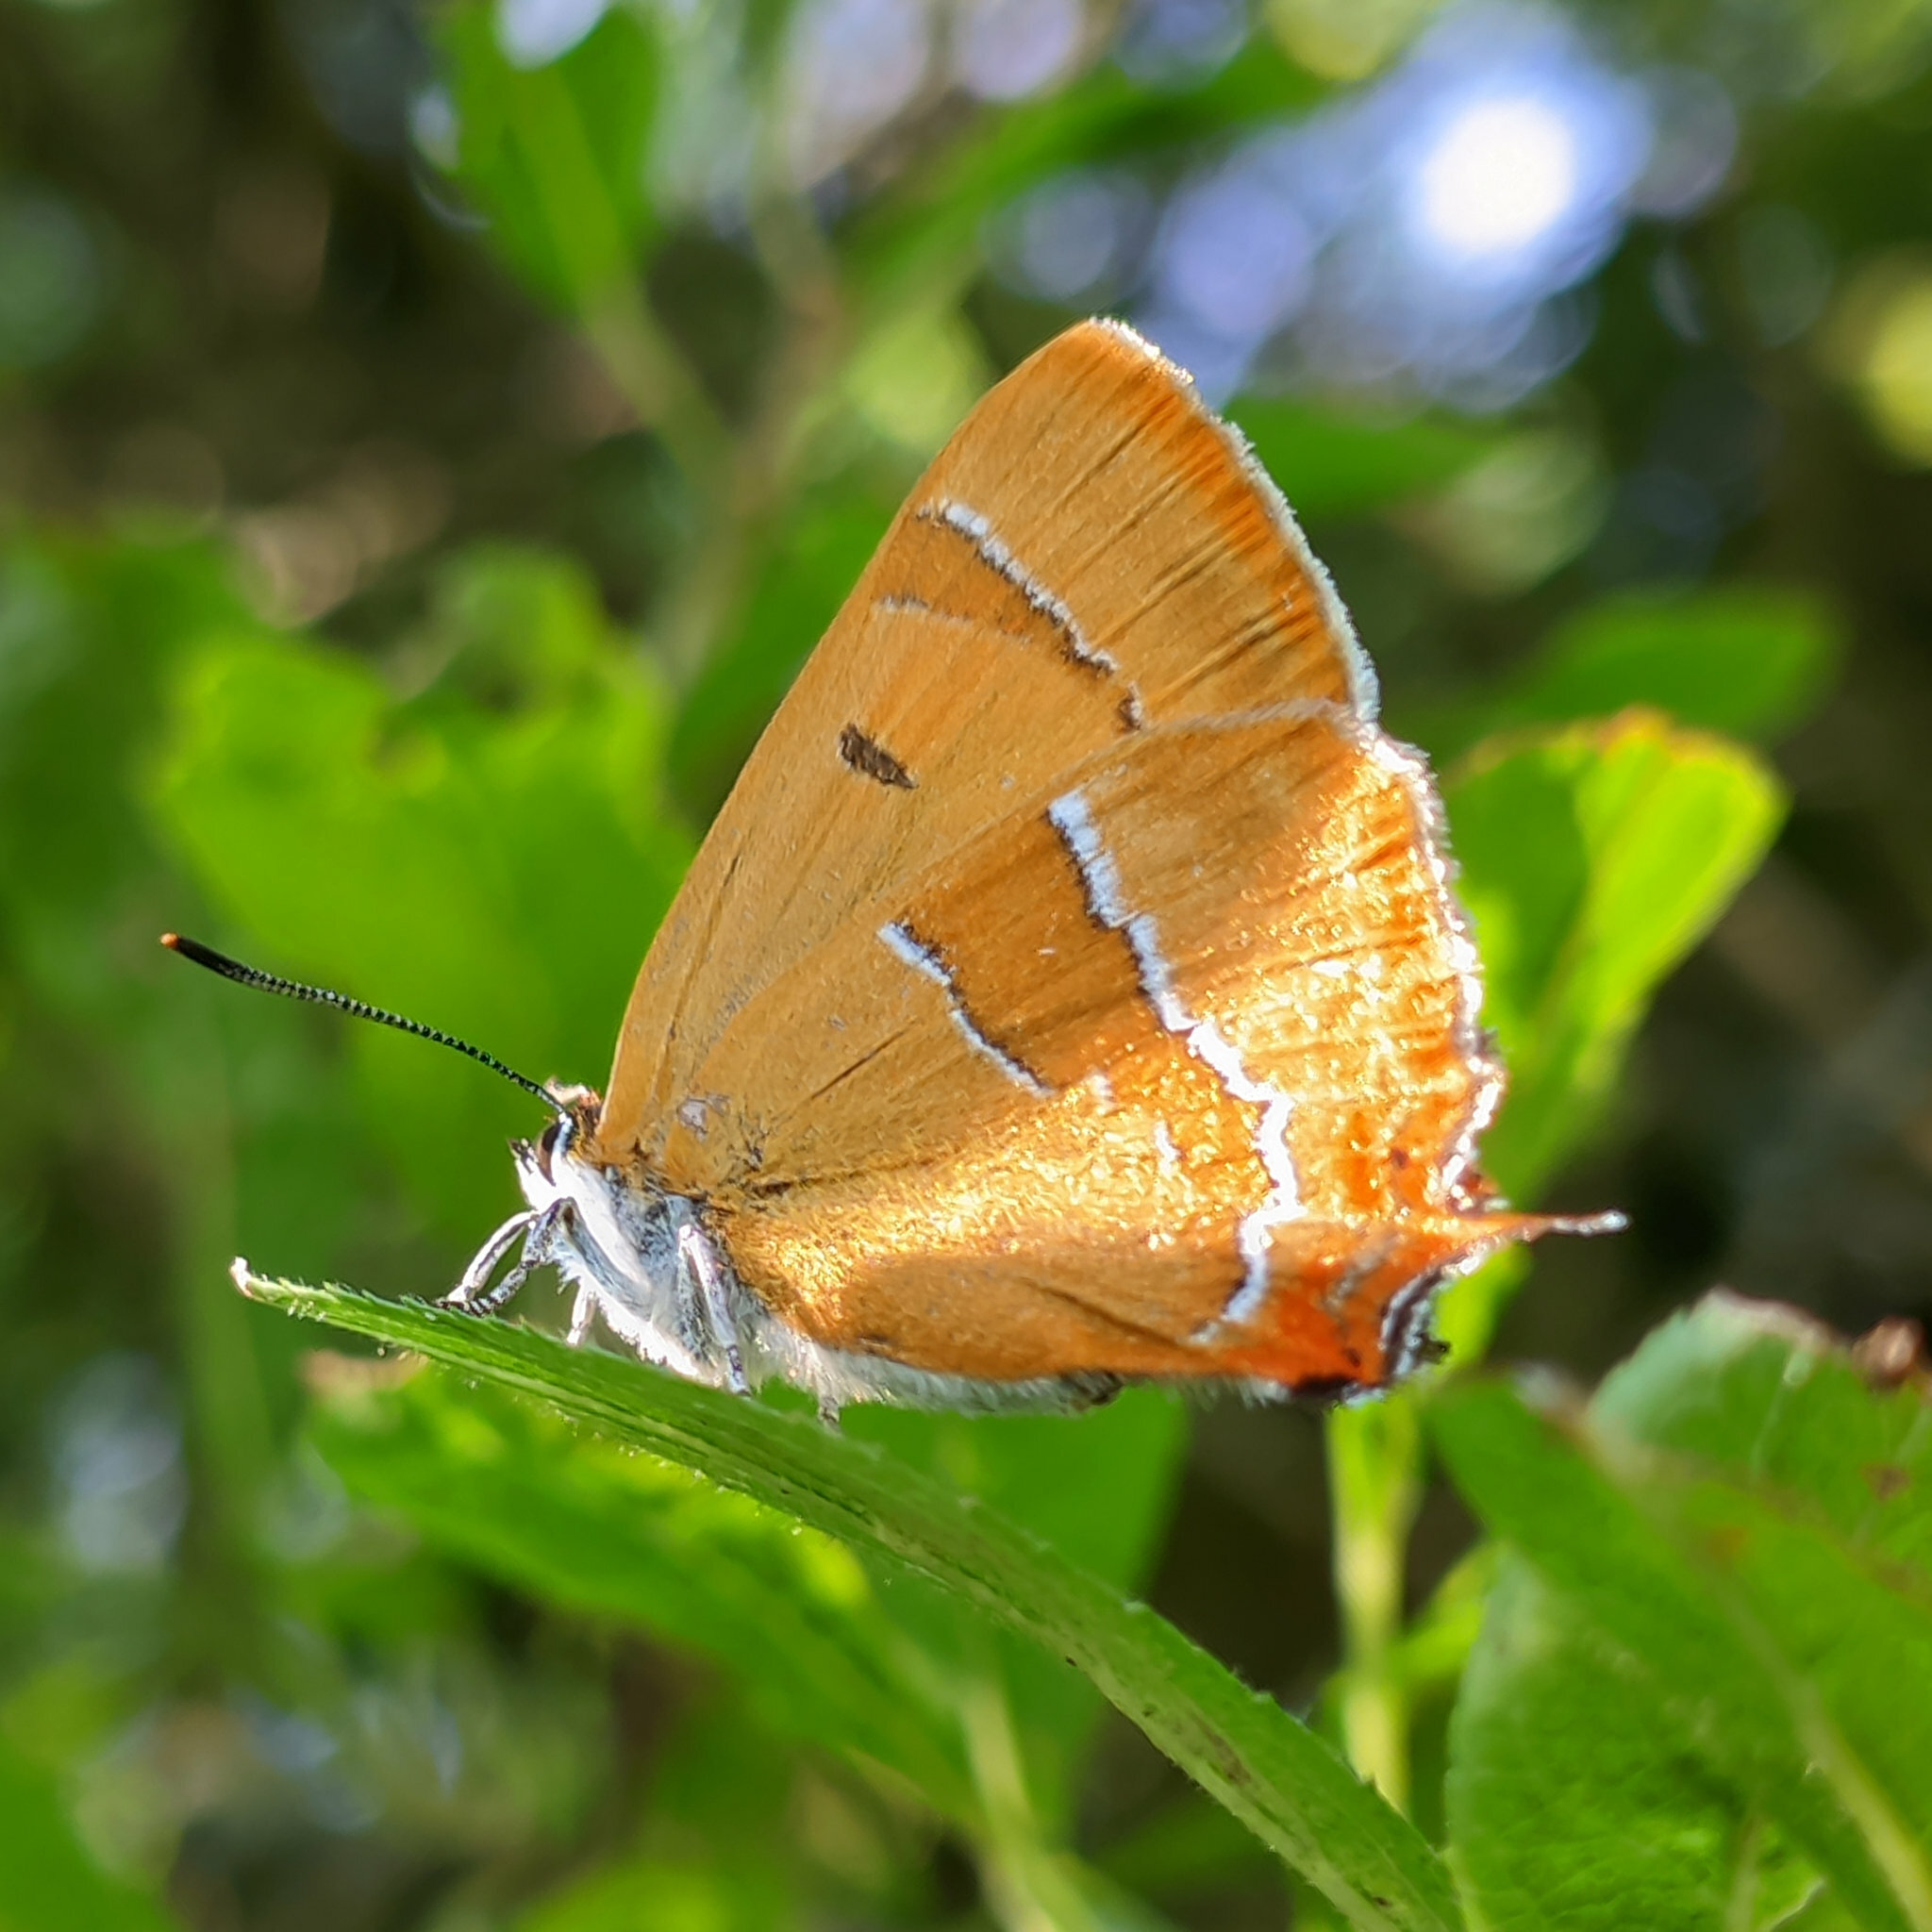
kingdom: Animalia
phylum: Arthropoda
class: Insecta
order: Lepidoptera
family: Lycaenidae
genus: Thecla
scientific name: Thecla betulae
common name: Brown hairstreak
